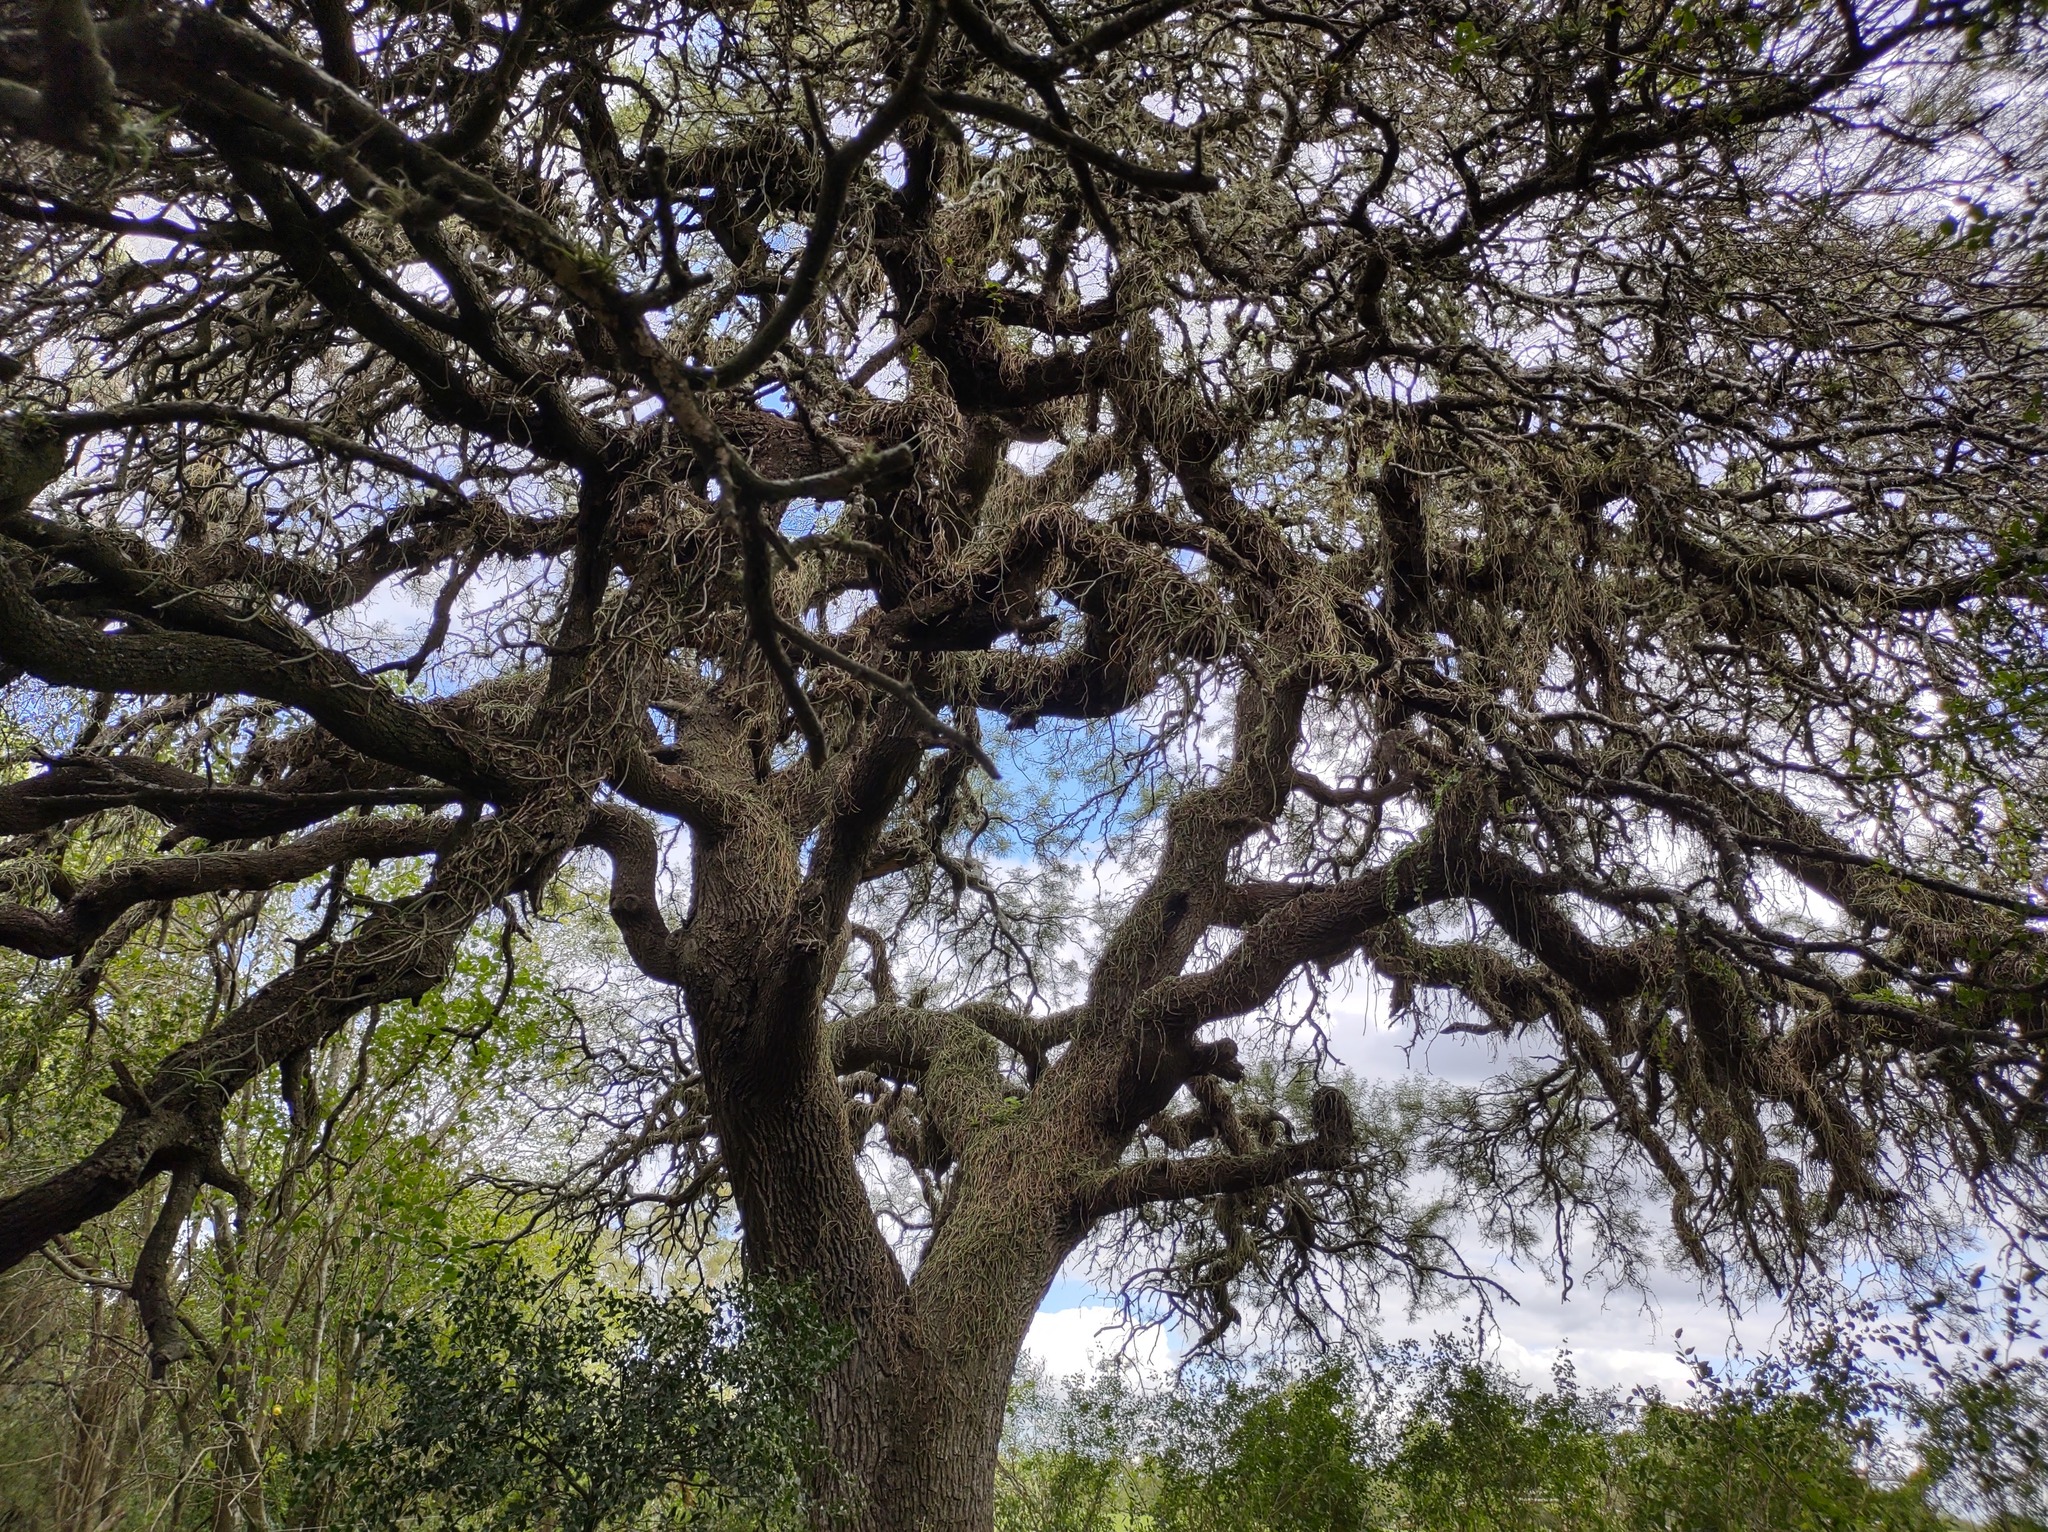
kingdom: Plantae
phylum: Tracheophyta
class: Magnoliopsida
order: Fabales
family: Fabaceae
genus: Prosopis
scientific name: Prosopis nigra
